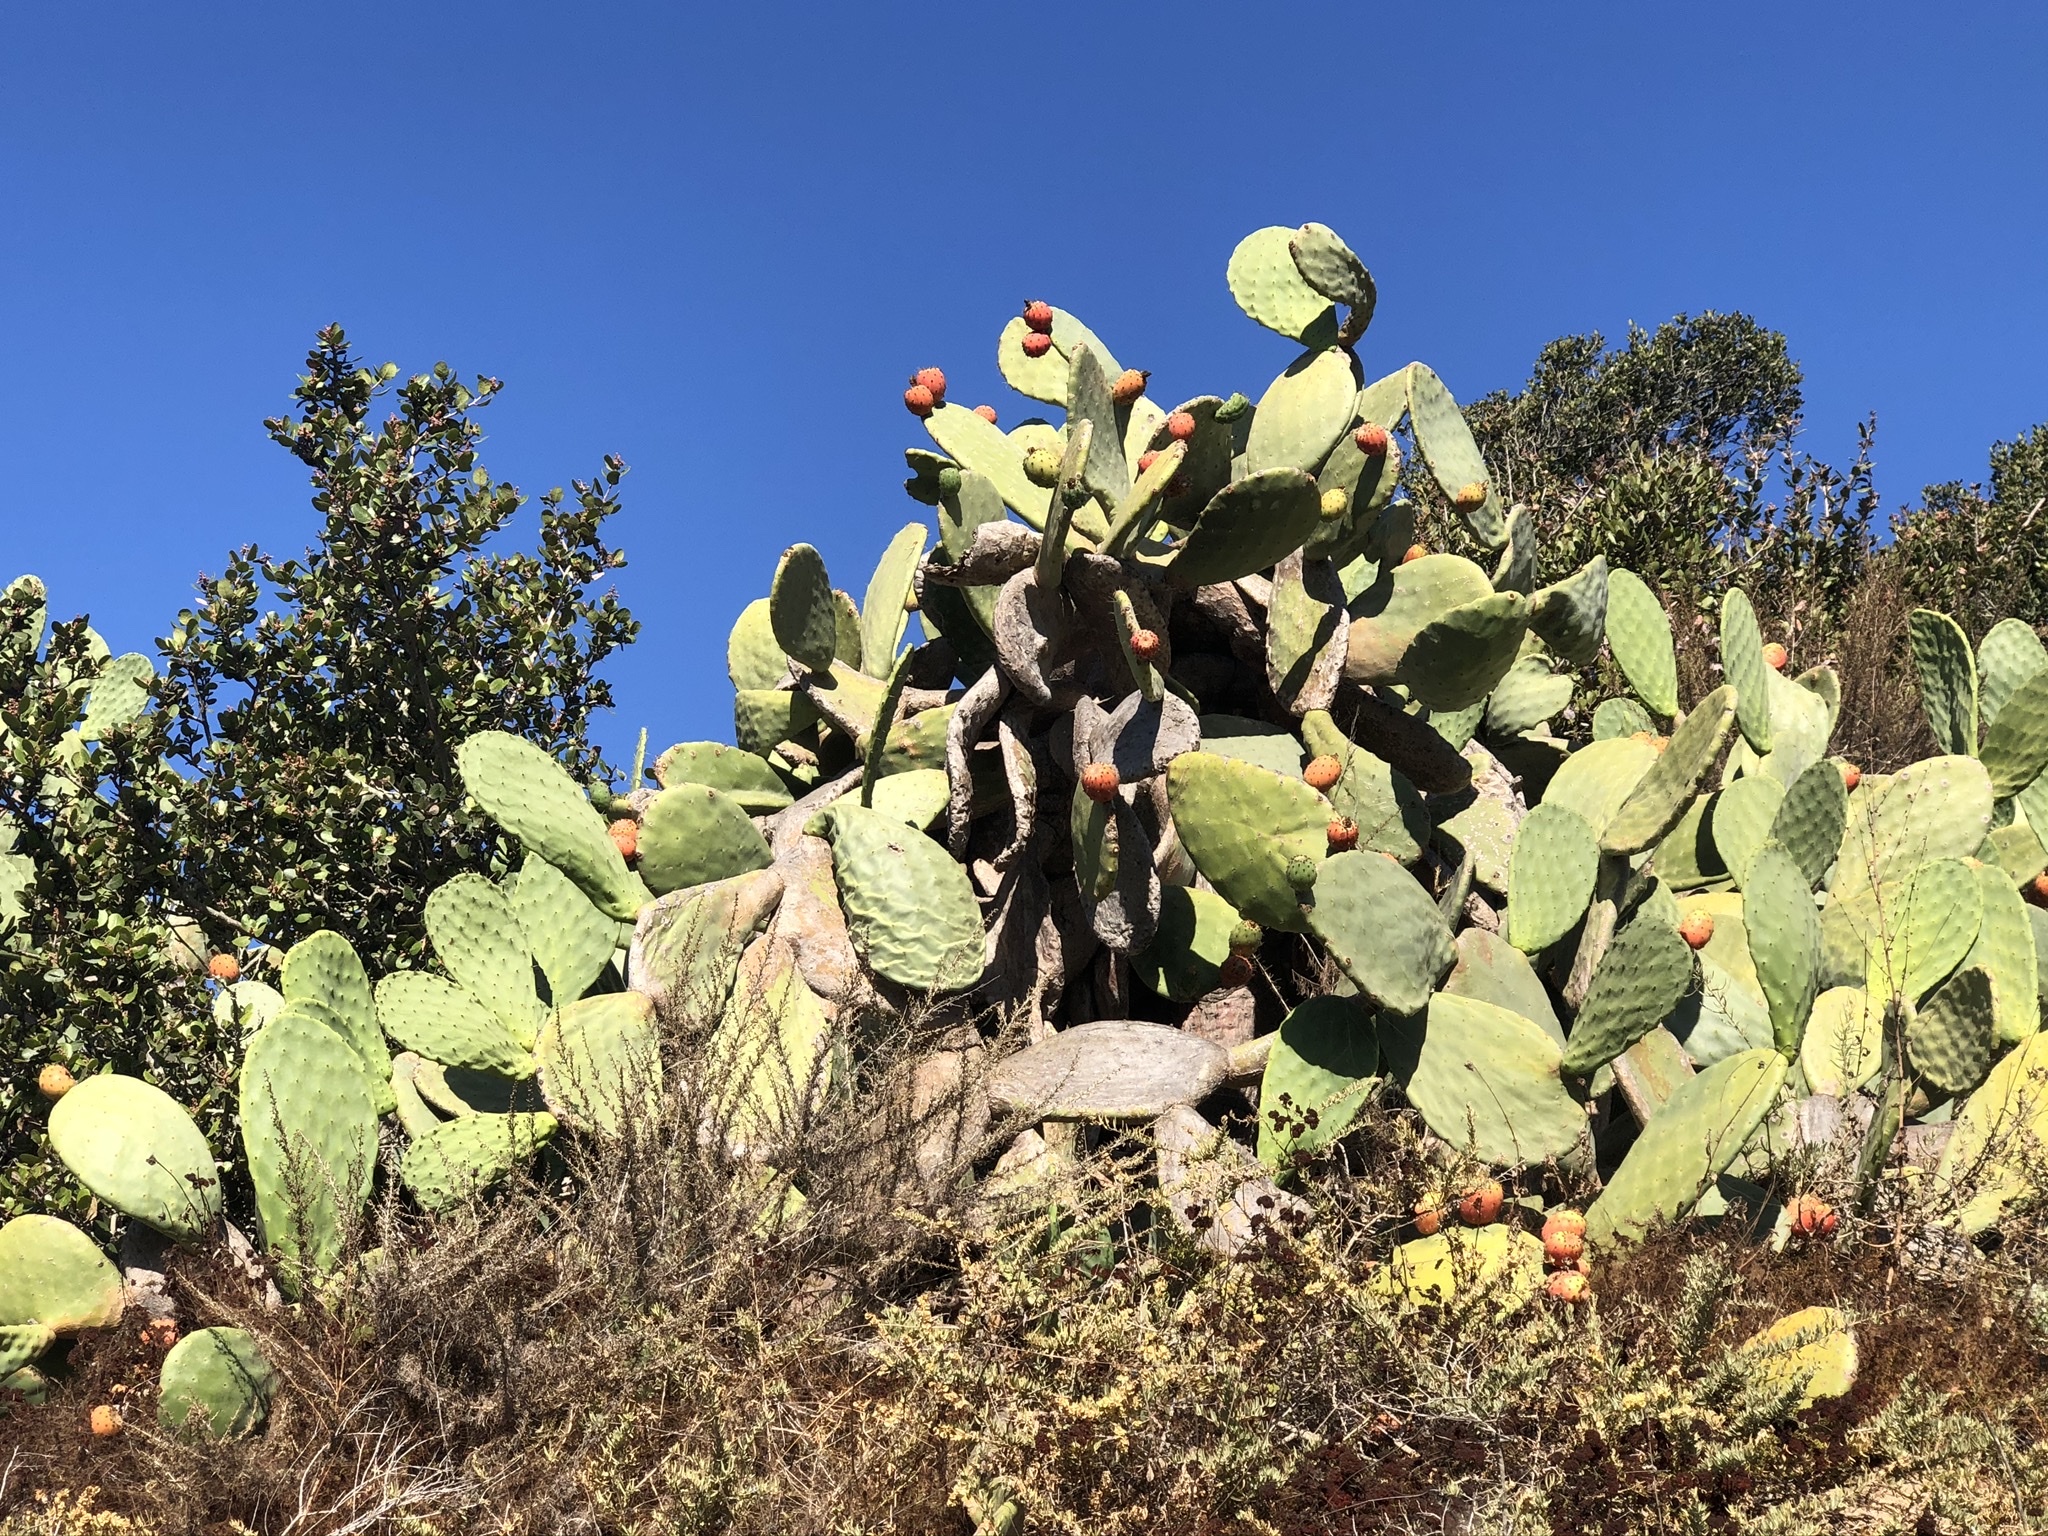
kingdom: Plantae
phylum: Tracheophyta
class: Magnoliopsida
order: Caryophyllales
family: Cactaceae
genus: Opuntia
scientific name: Opuntia ficus-indica
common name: Barbary fig
